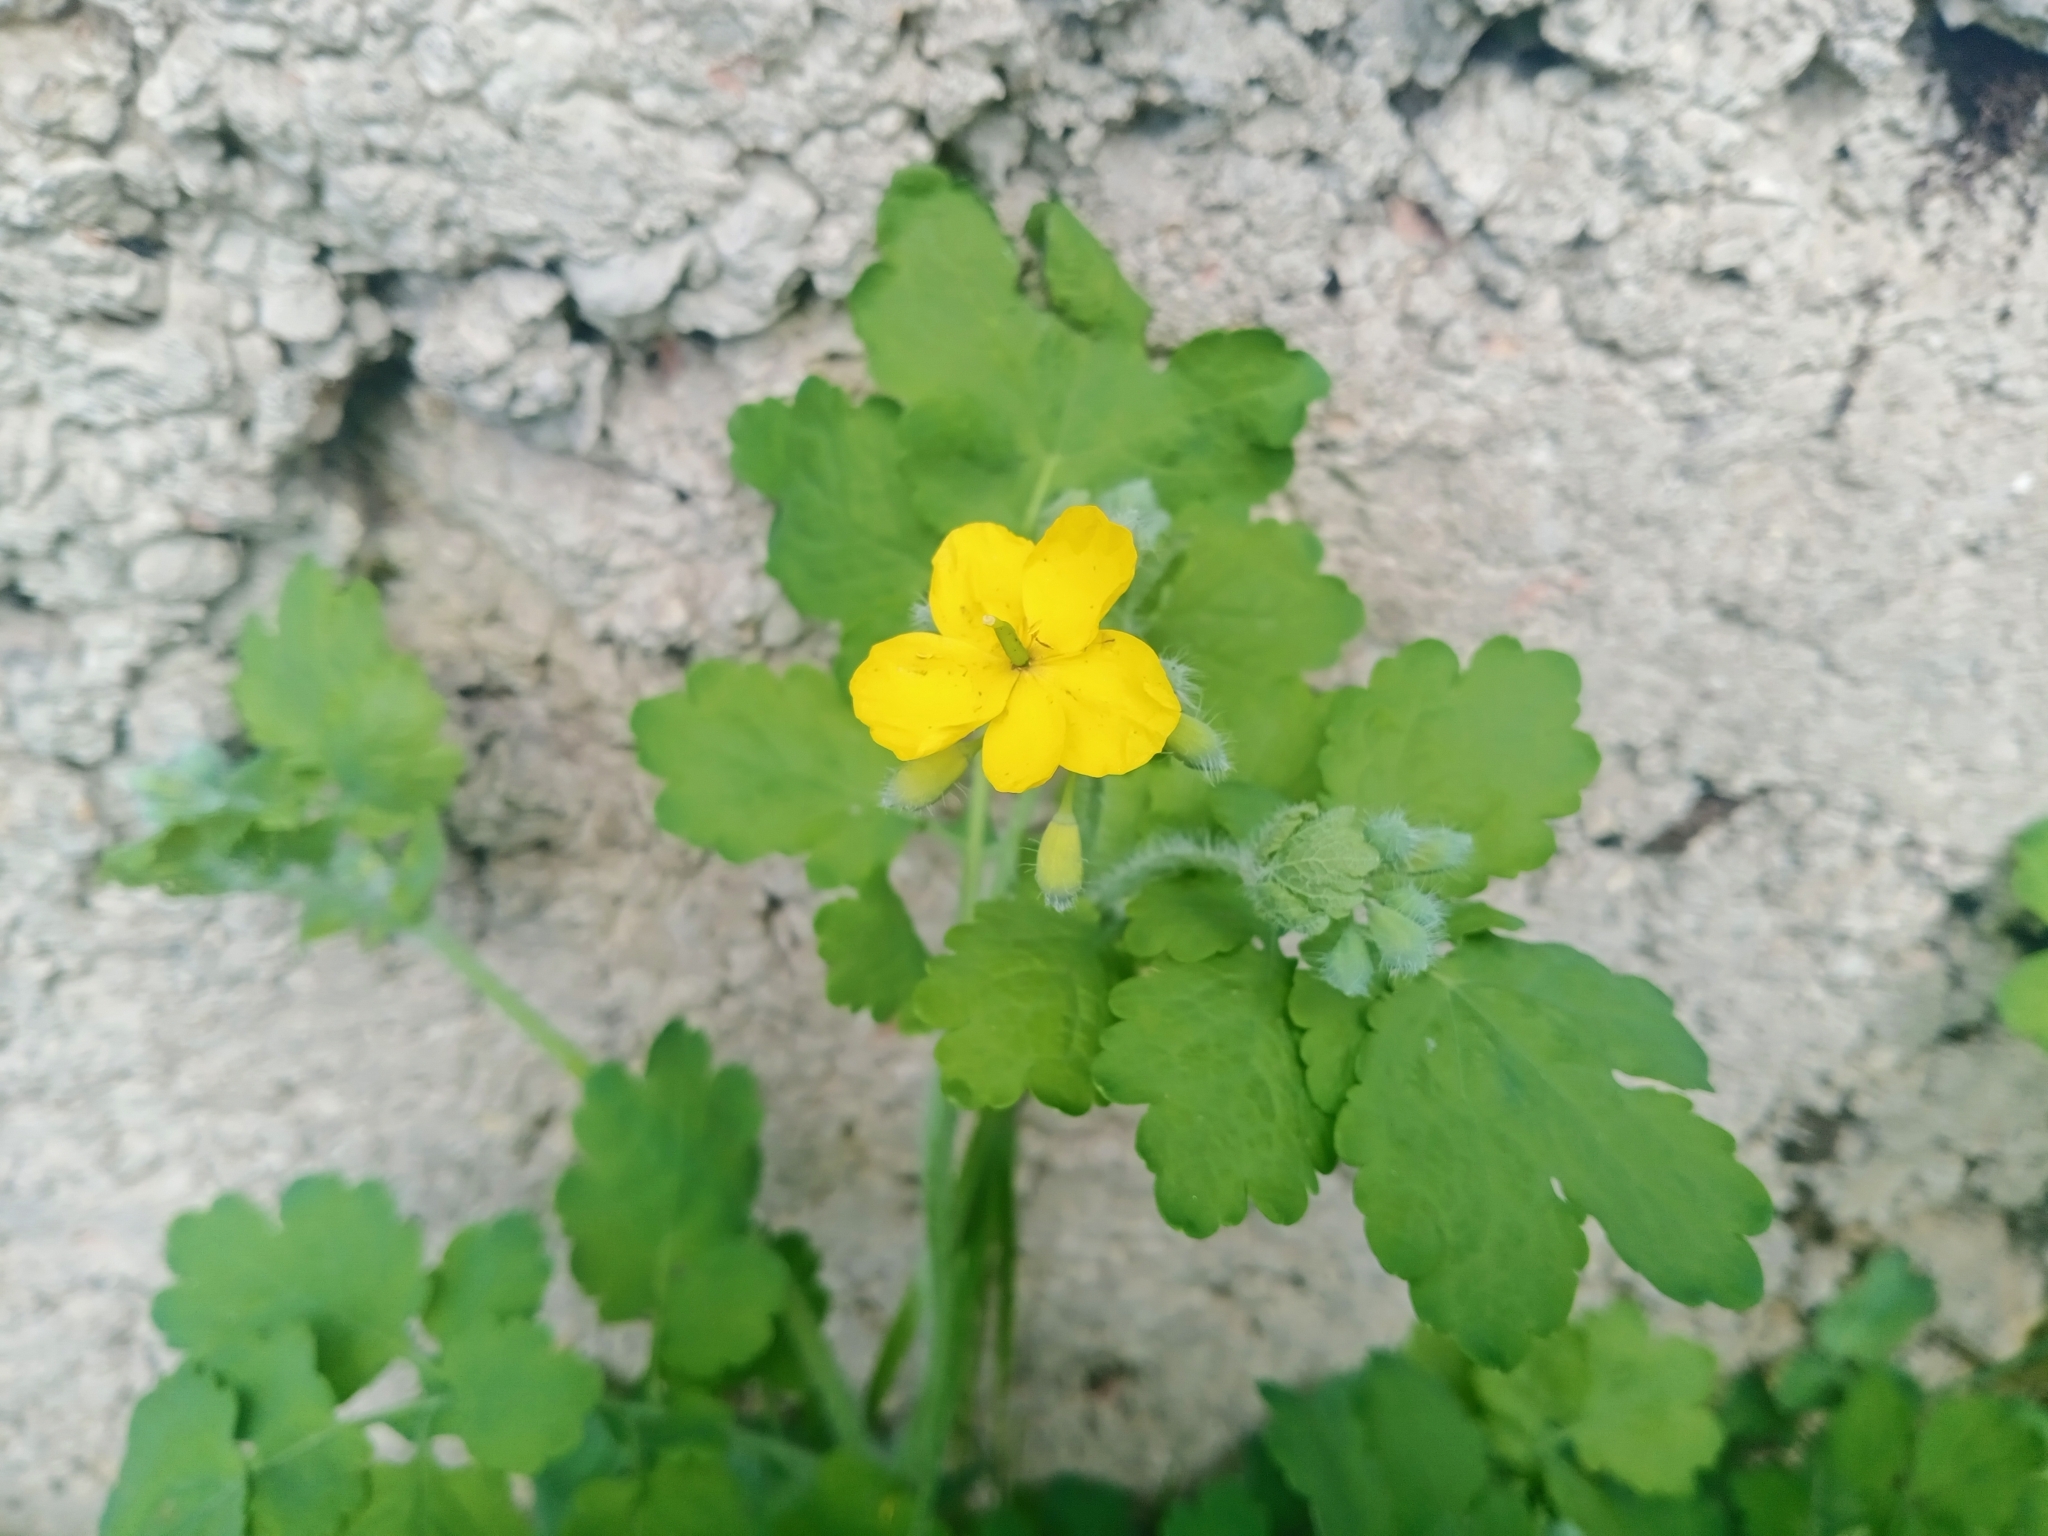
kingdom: Plantae
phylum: Tracheophyta
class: Magnoliopsida
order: Ranunculales
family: Papaveraceae
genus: Chelidonium
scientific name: Chelidonium majus
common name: Greater celandine
